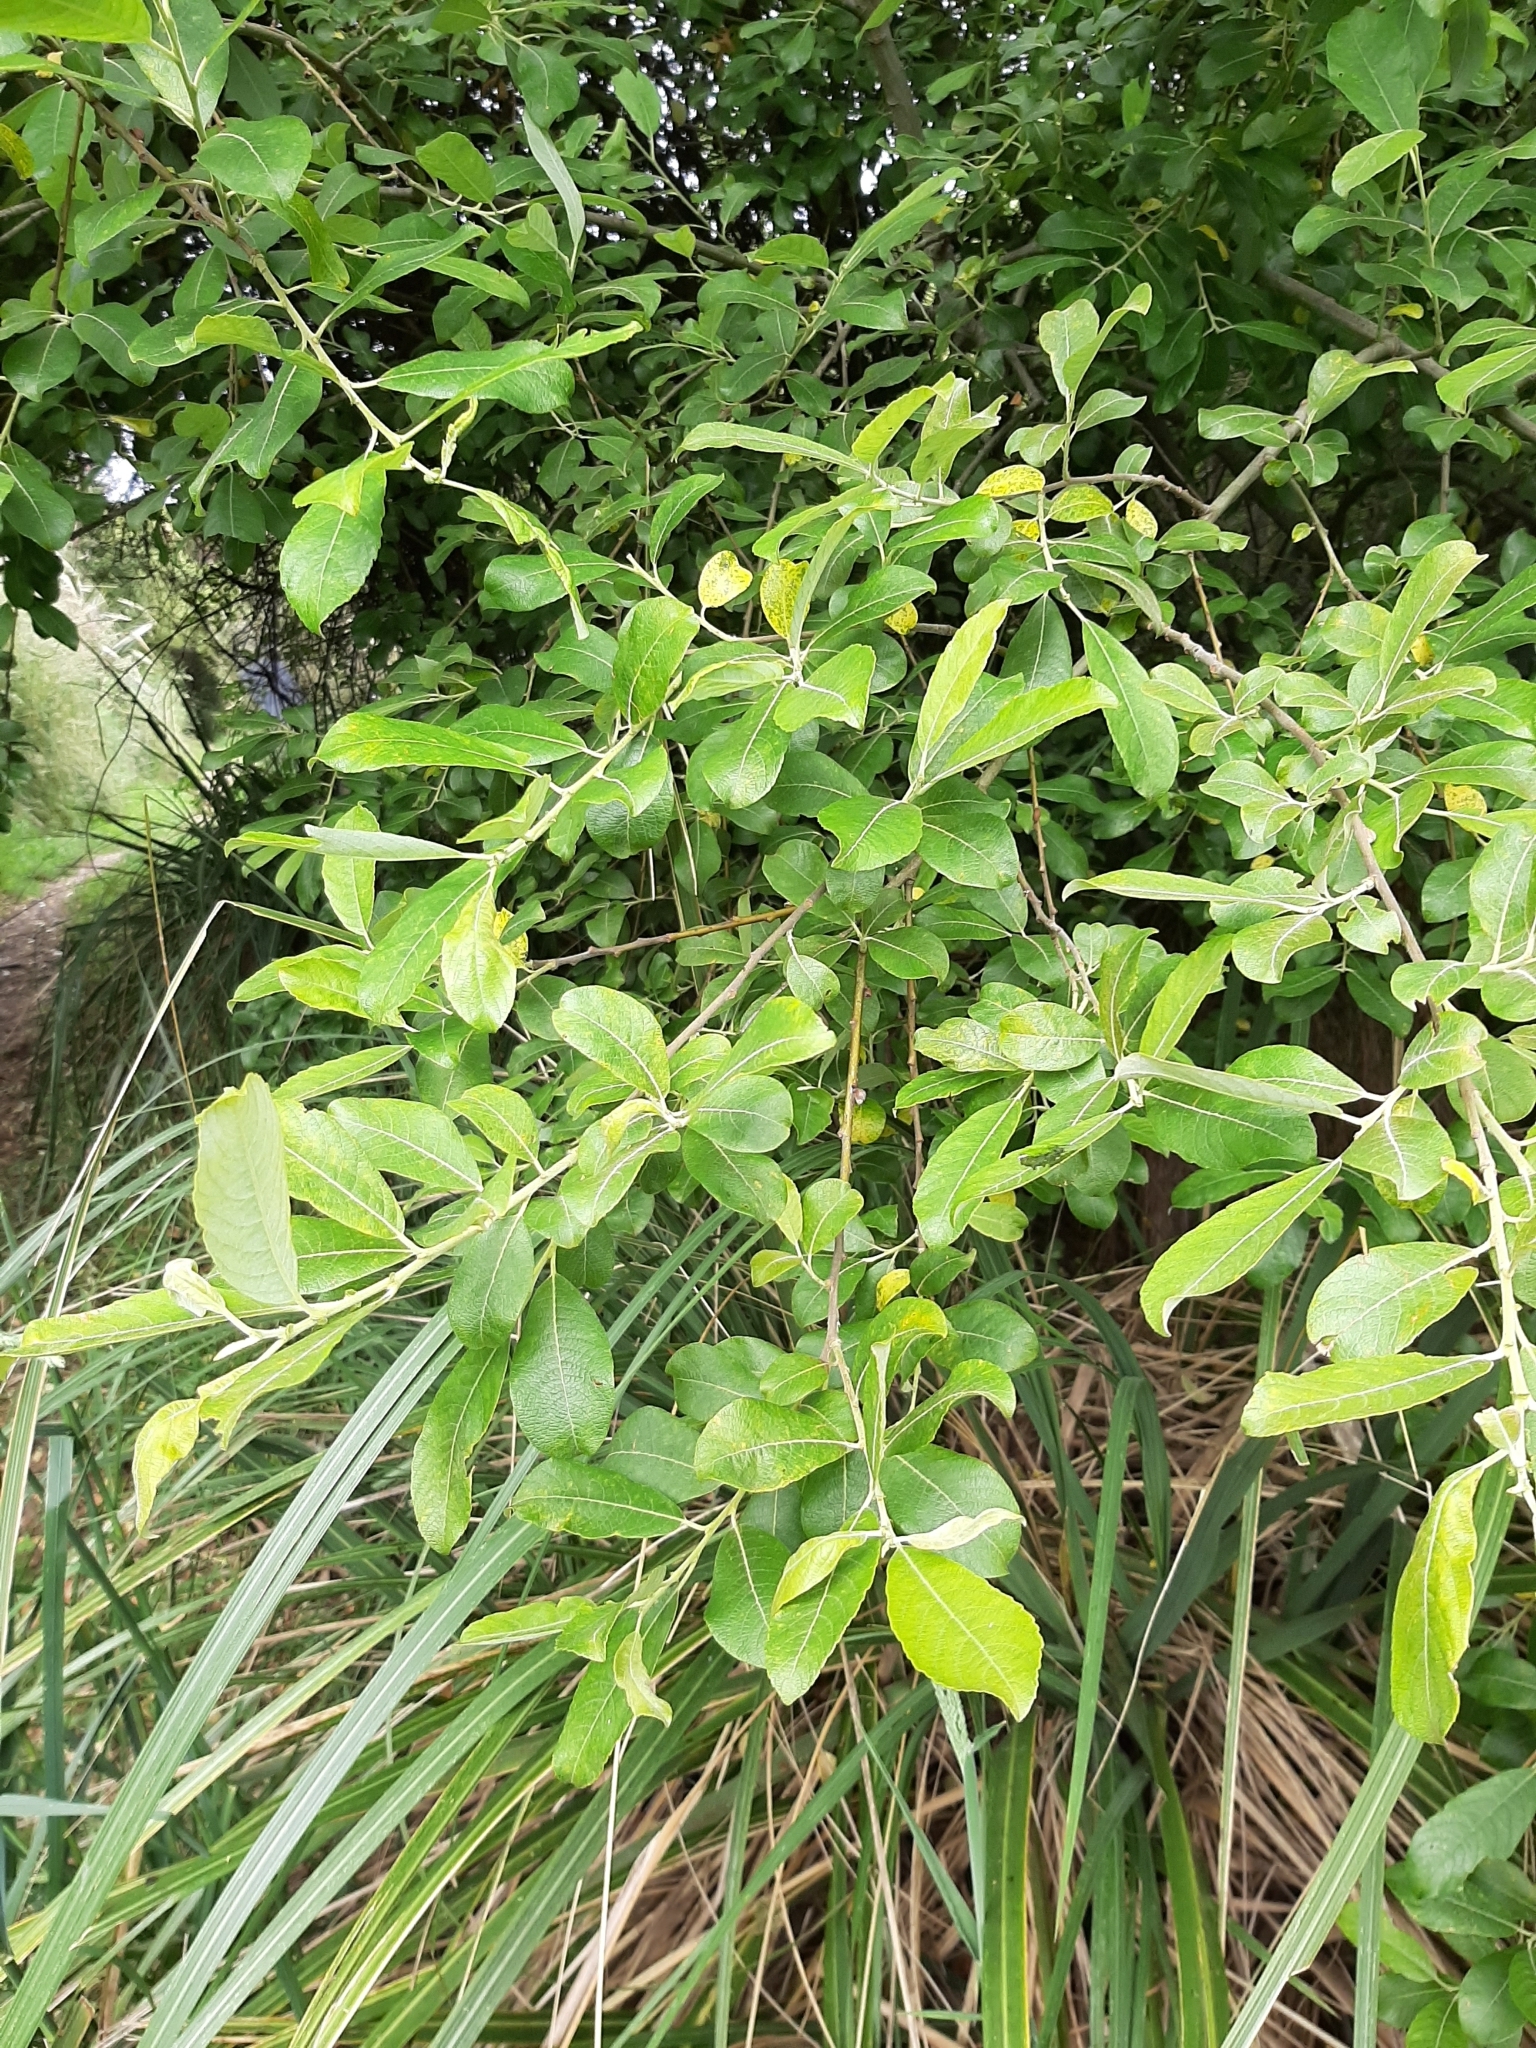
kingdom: Plantae
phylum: Tracheophyta
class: Magnoliopsida
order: Malpighiales
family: Salicaceae
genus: Salix
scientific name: Salix cinerea
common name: Common sallow
